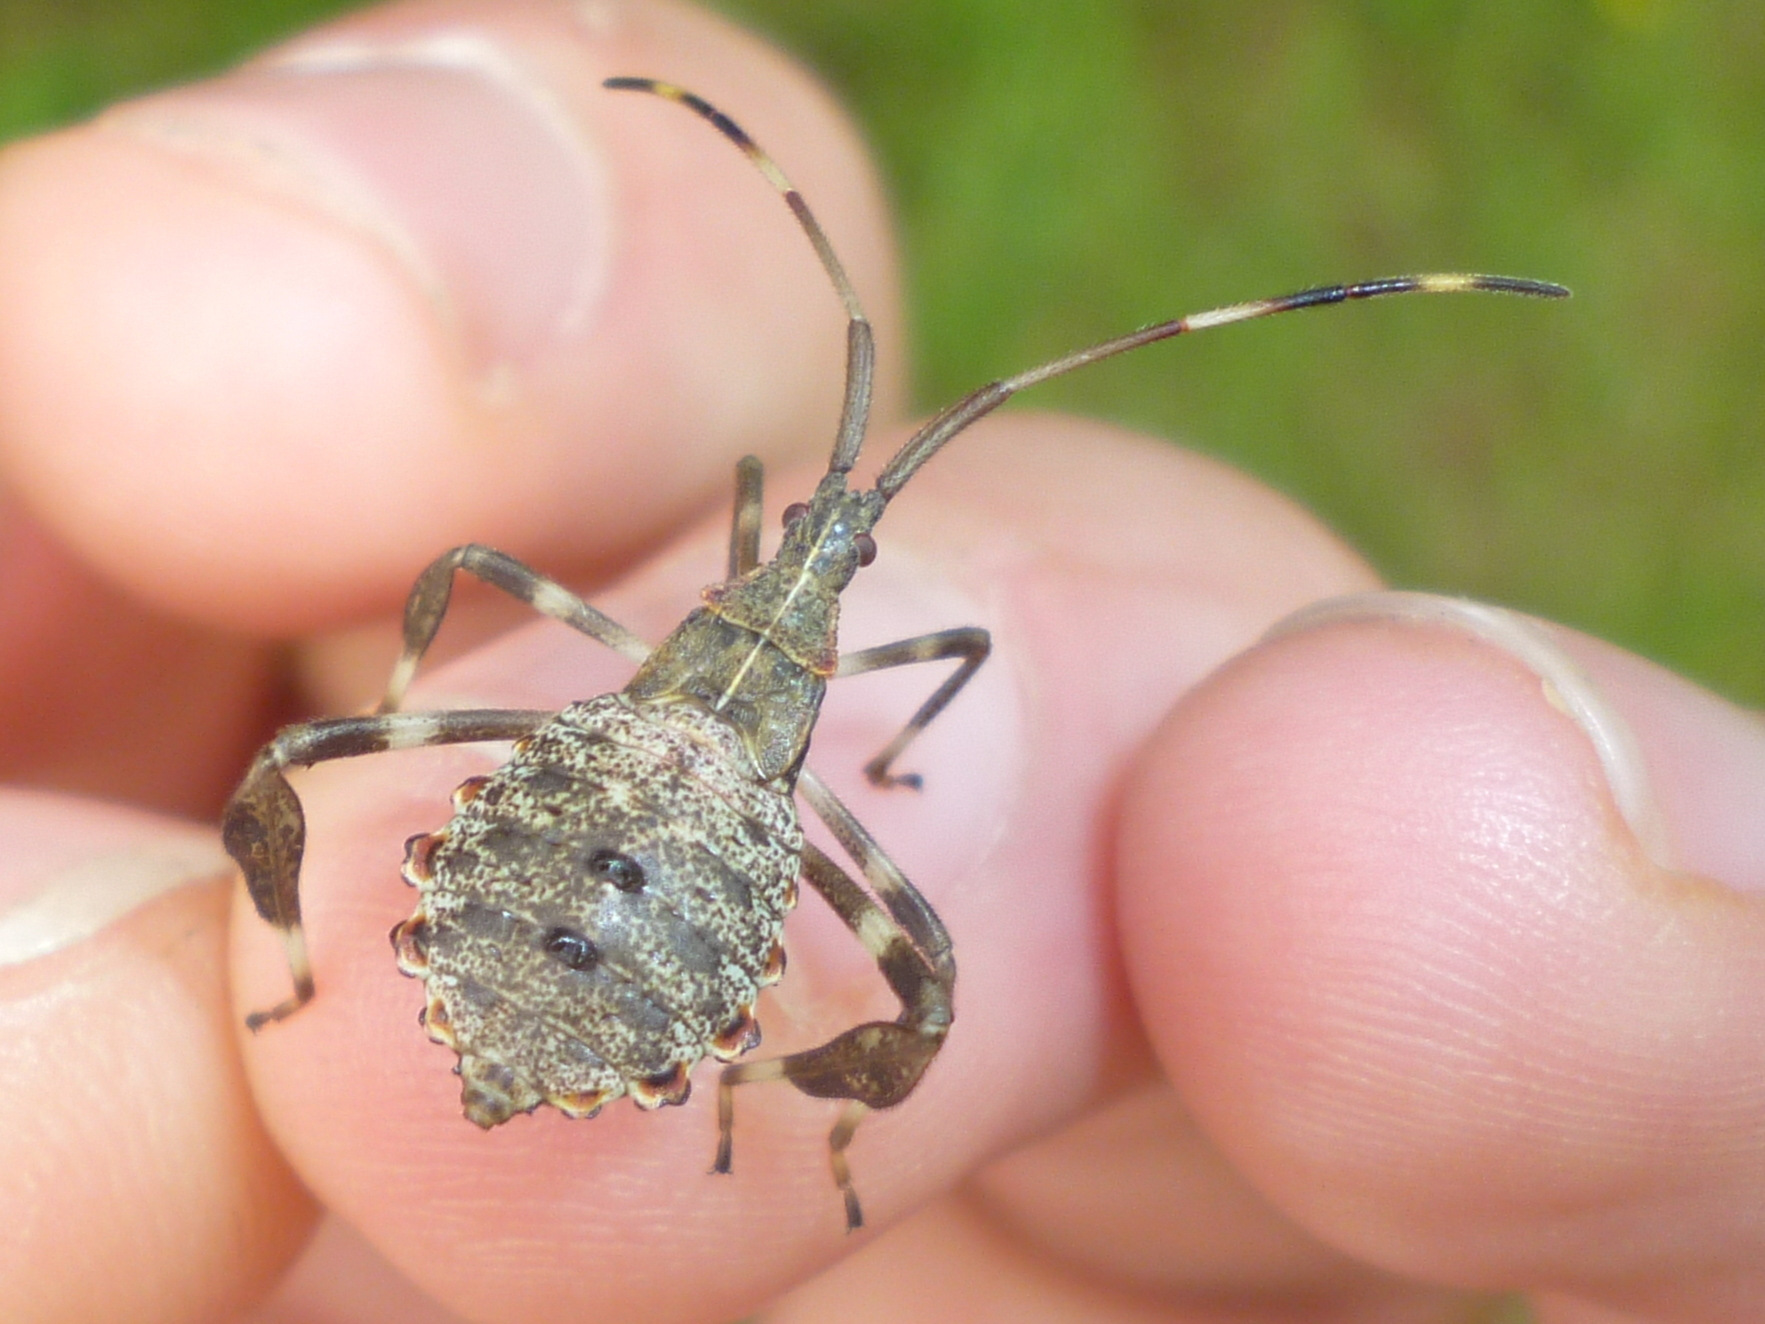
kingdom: Animalia
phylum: Arthropoda
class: Insecta
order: Hemiptera
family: Coreidae
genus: Acanthocephala
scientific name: Acanthocephala terminalis
